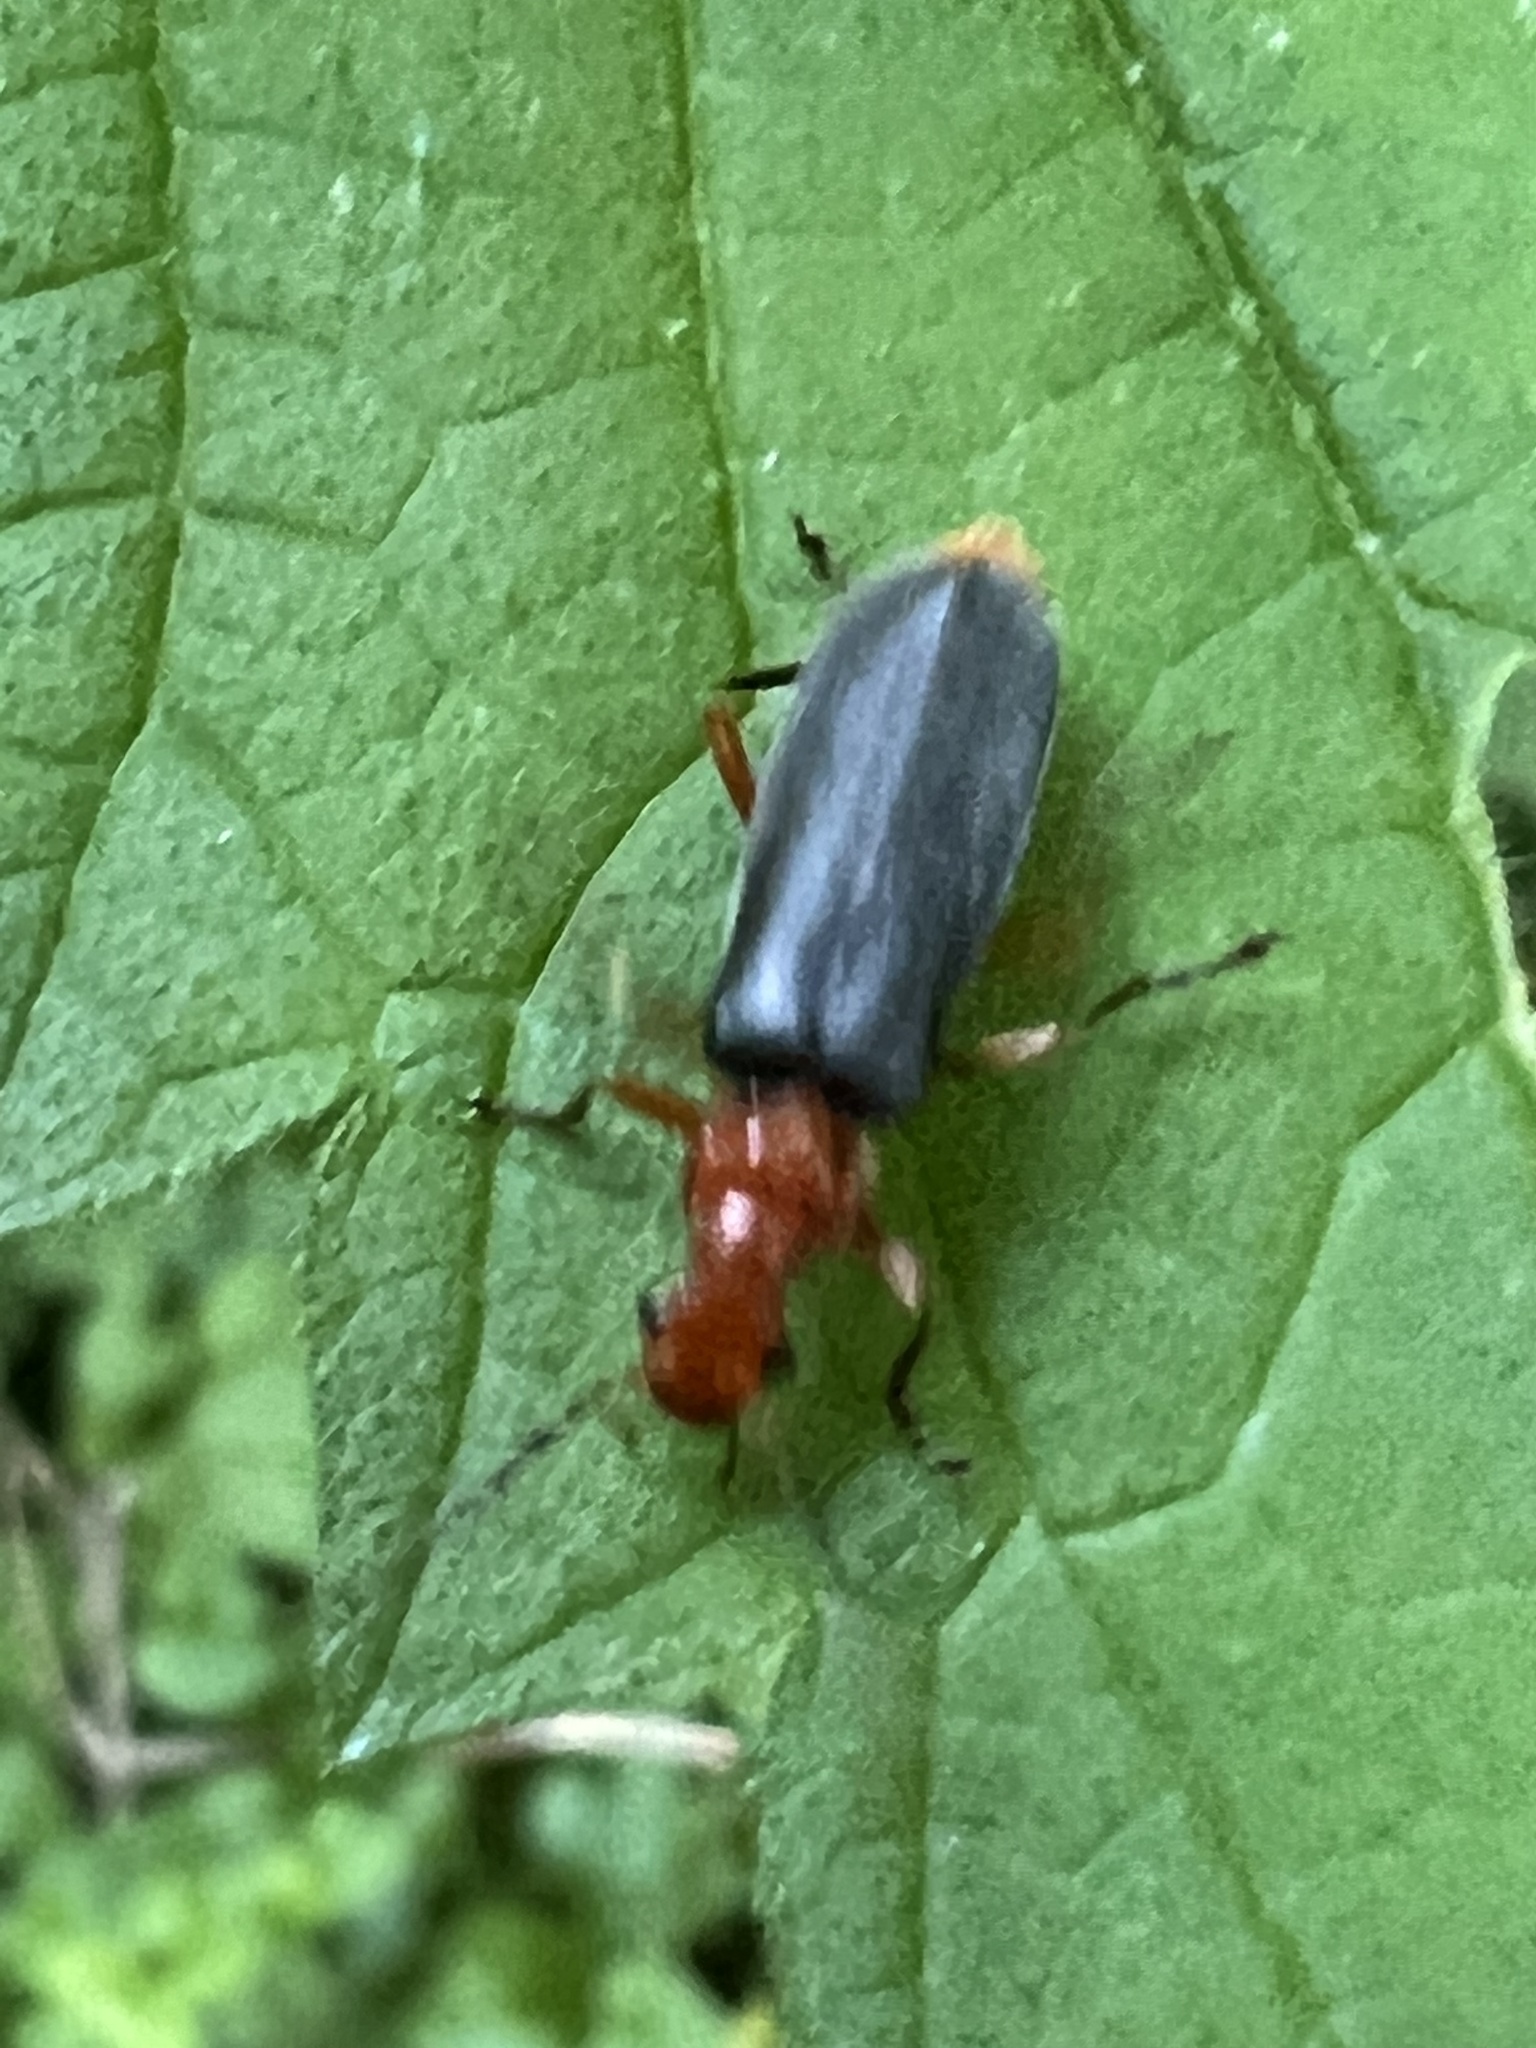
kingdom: Animalia
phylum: Arthropoda
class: Insecta
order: Coleoptera
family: Cantharidae
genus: Podabrus
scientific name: Podabrus tomentosus
